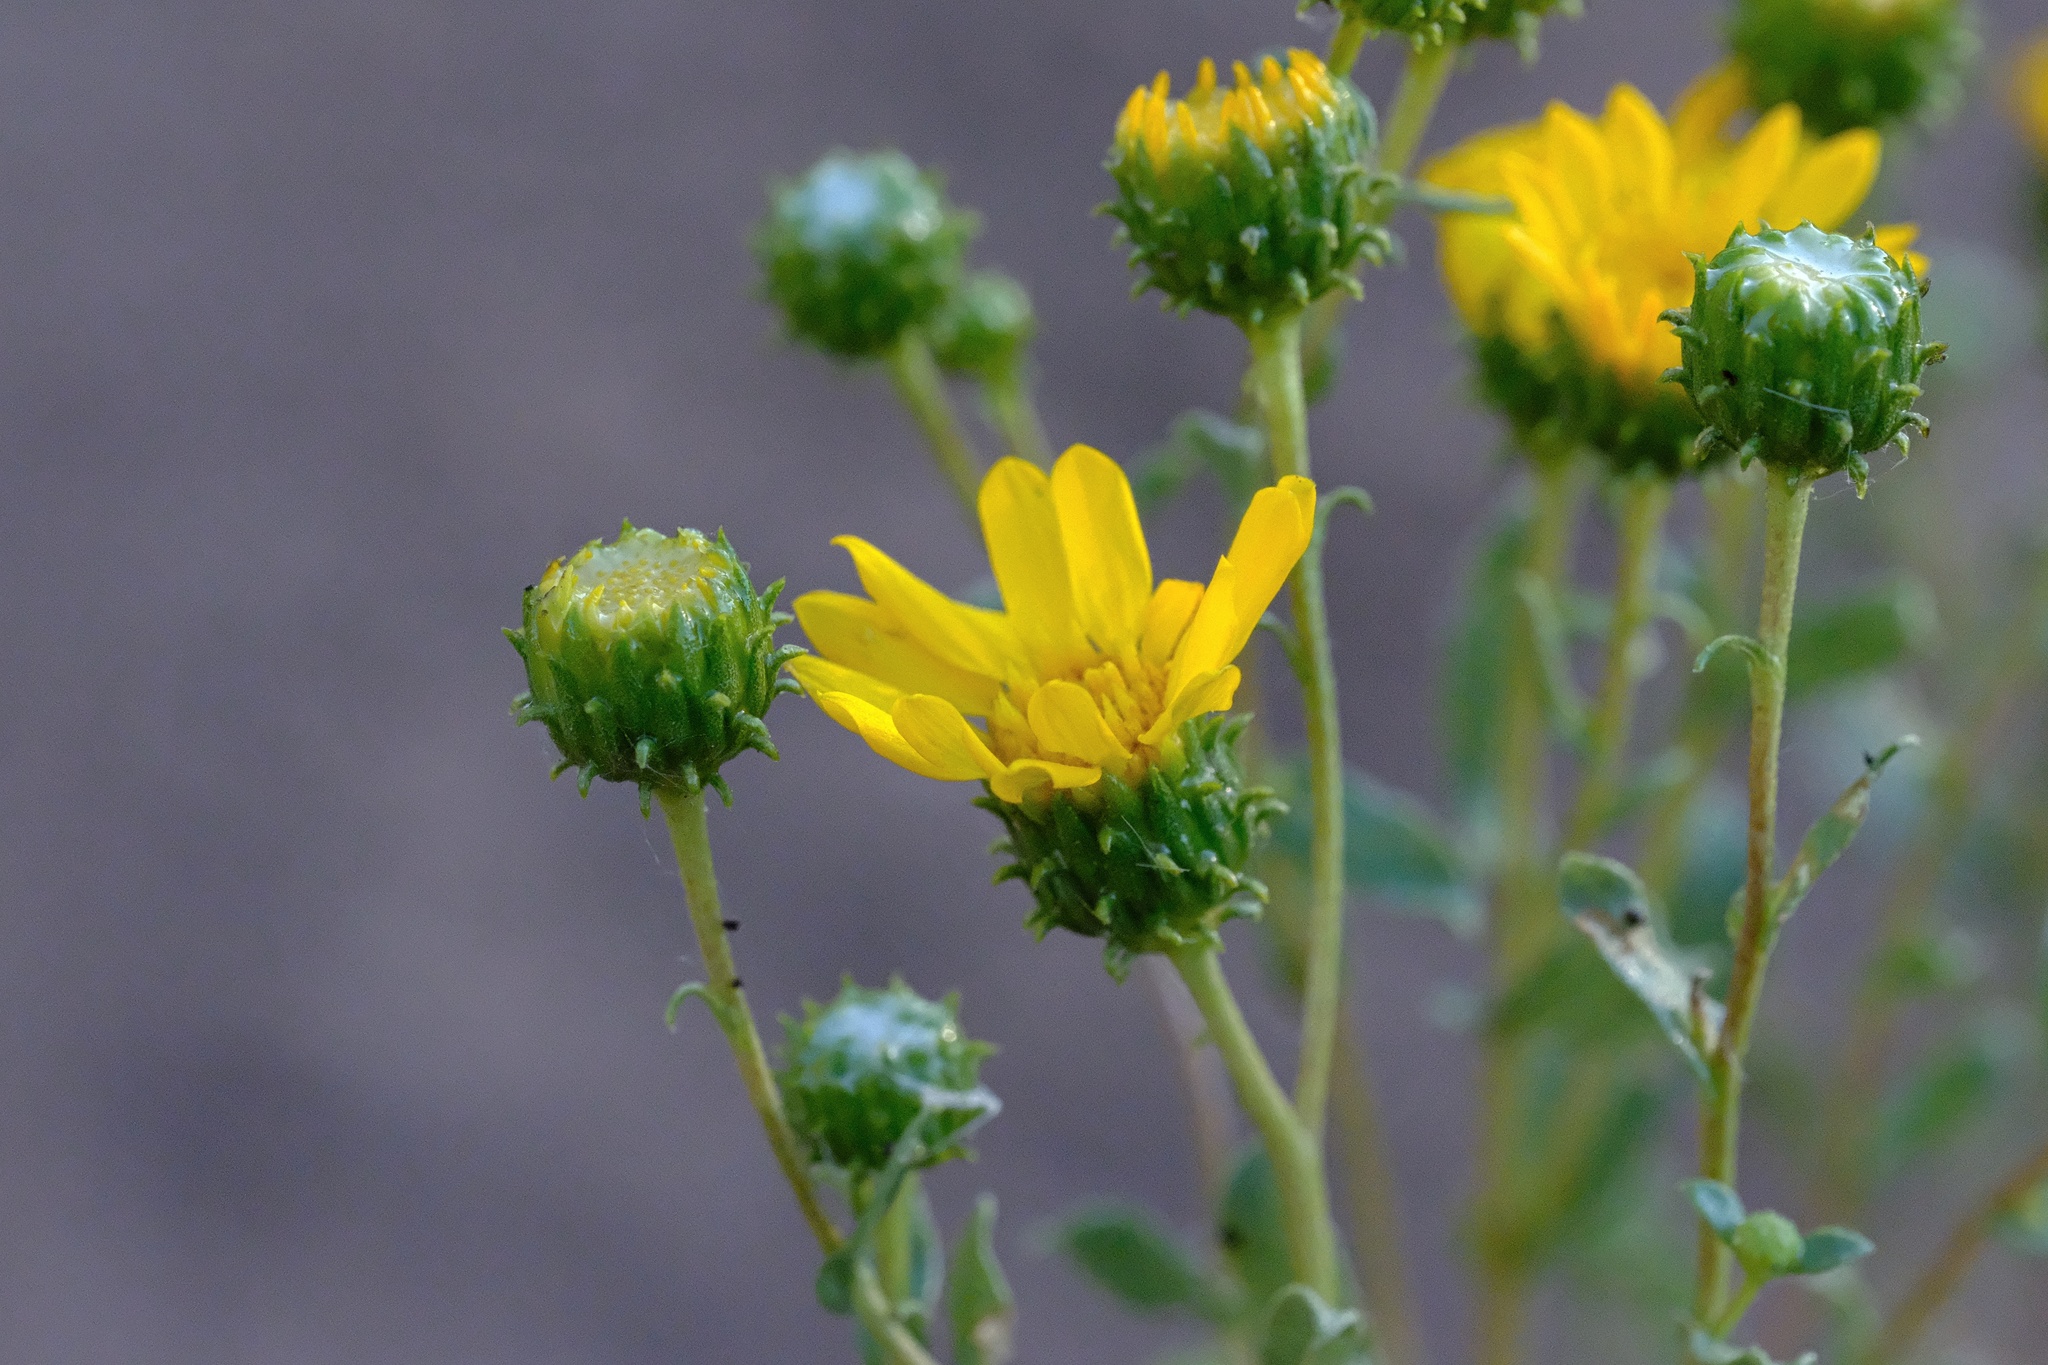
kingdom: Plantae
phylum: Tracheophyta
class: Magnoliopsida
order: Asterales
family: Asteraceae
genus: Grindelia
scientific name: Grindelia hirsutula
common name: Hairy gumweed
